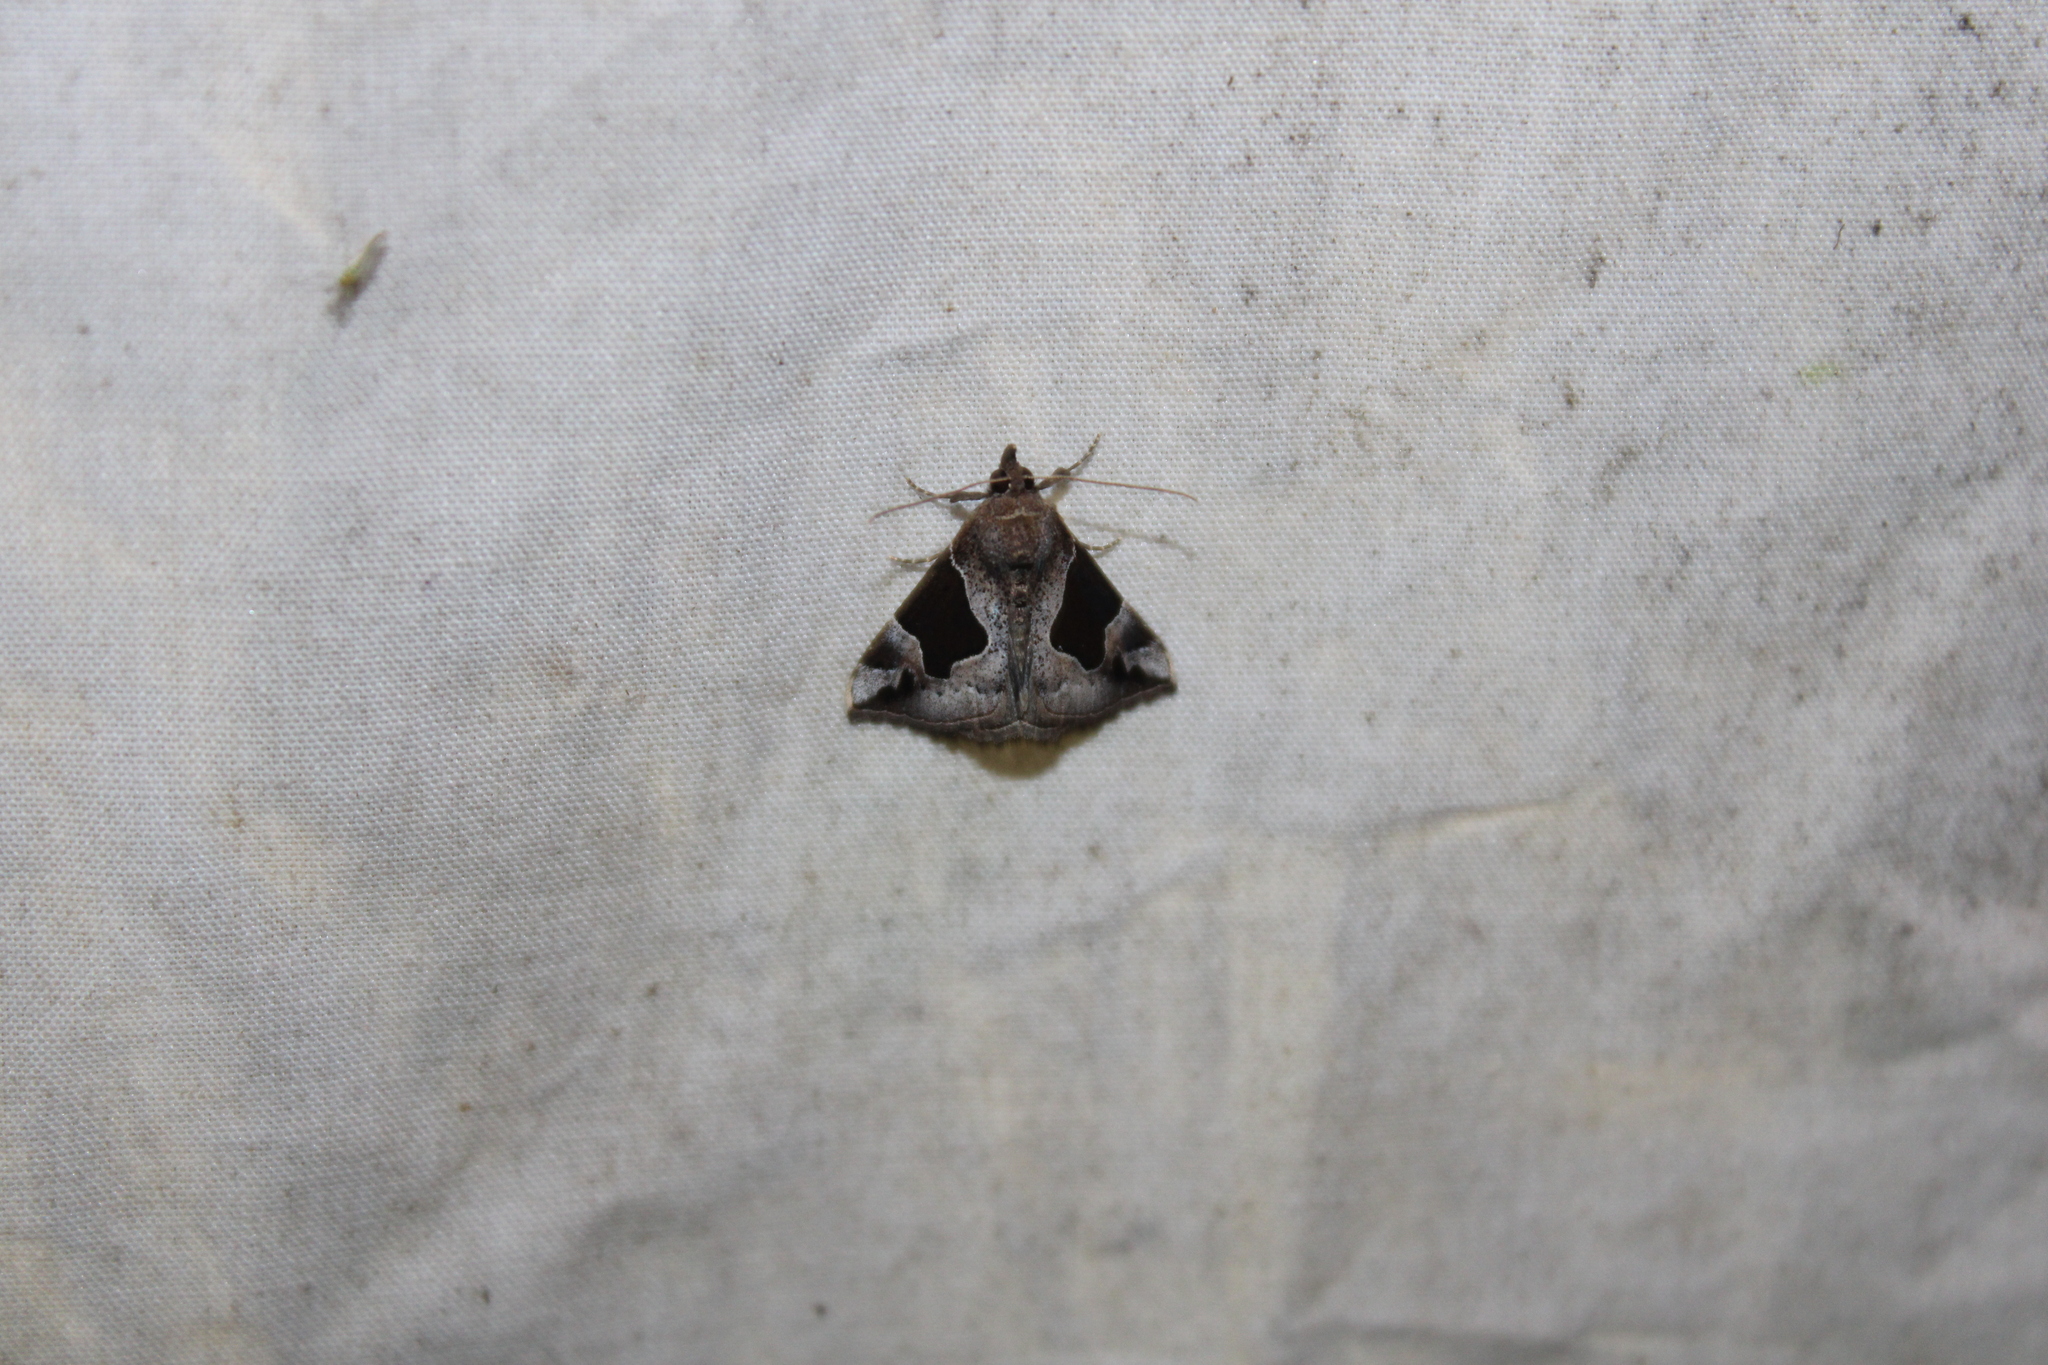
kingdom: Animalia
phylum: Arthropoda
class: Insecta
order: Lepidoptera
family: Erebidae
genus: Hypena
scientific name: Hypena manalis
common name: Flowing-line bomolocha moth
